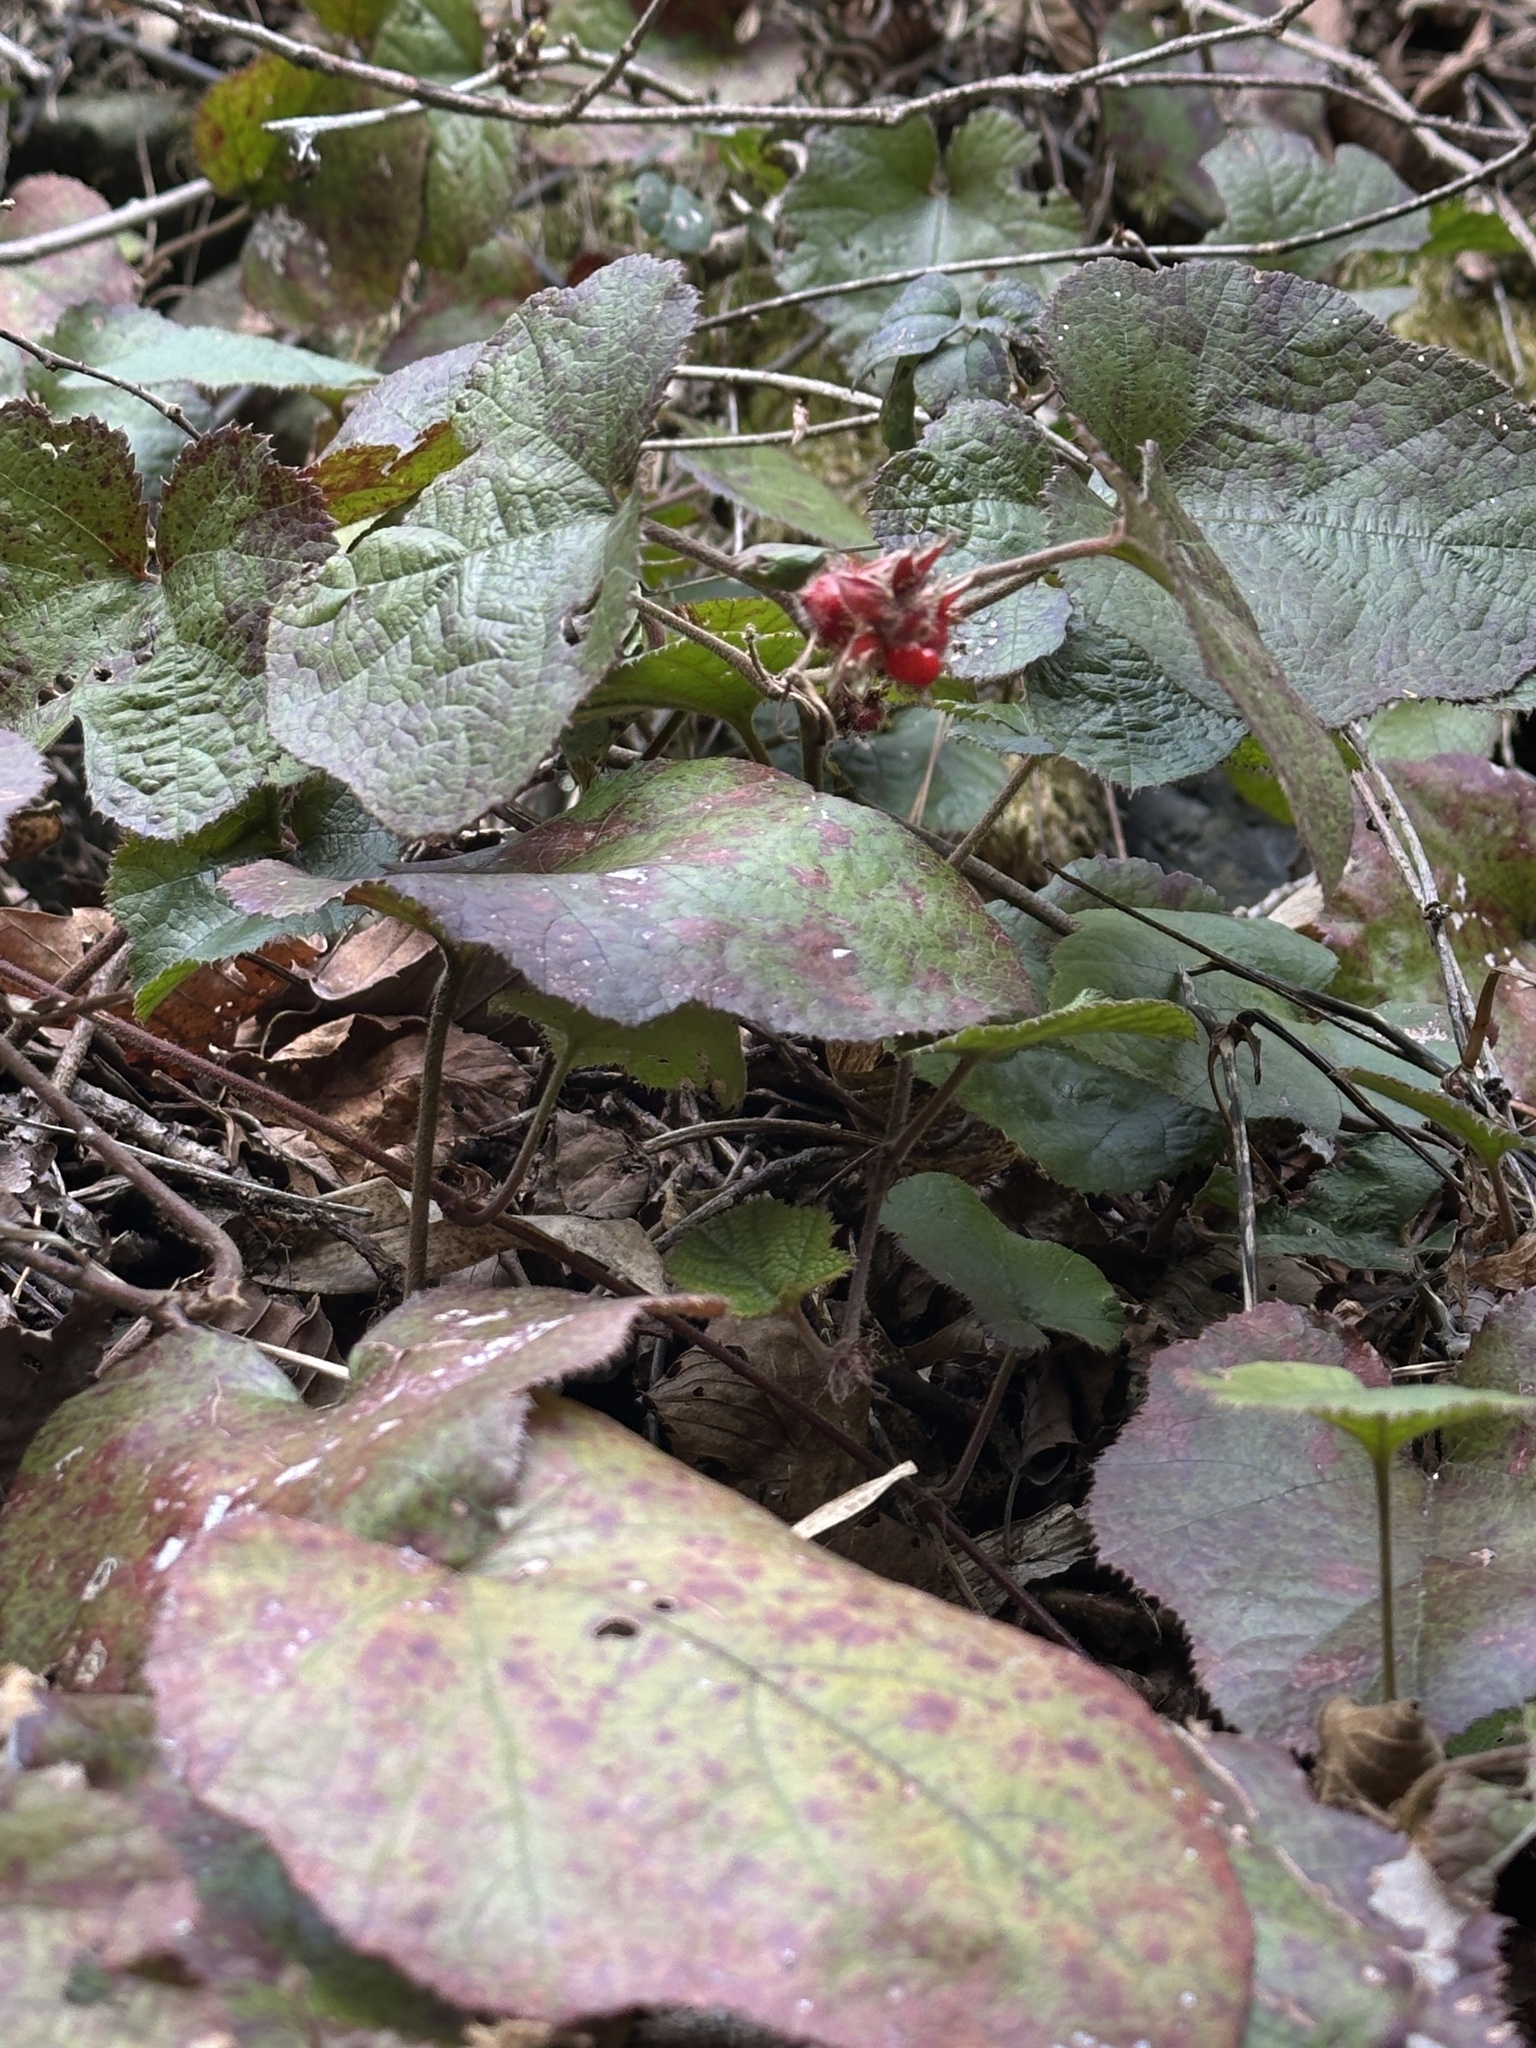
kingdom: Plantae
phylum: Tracheophyta
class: Magnoliopsida
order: Rosales
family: Rosaceae
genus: Rubus
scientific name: Rubus buergeri
